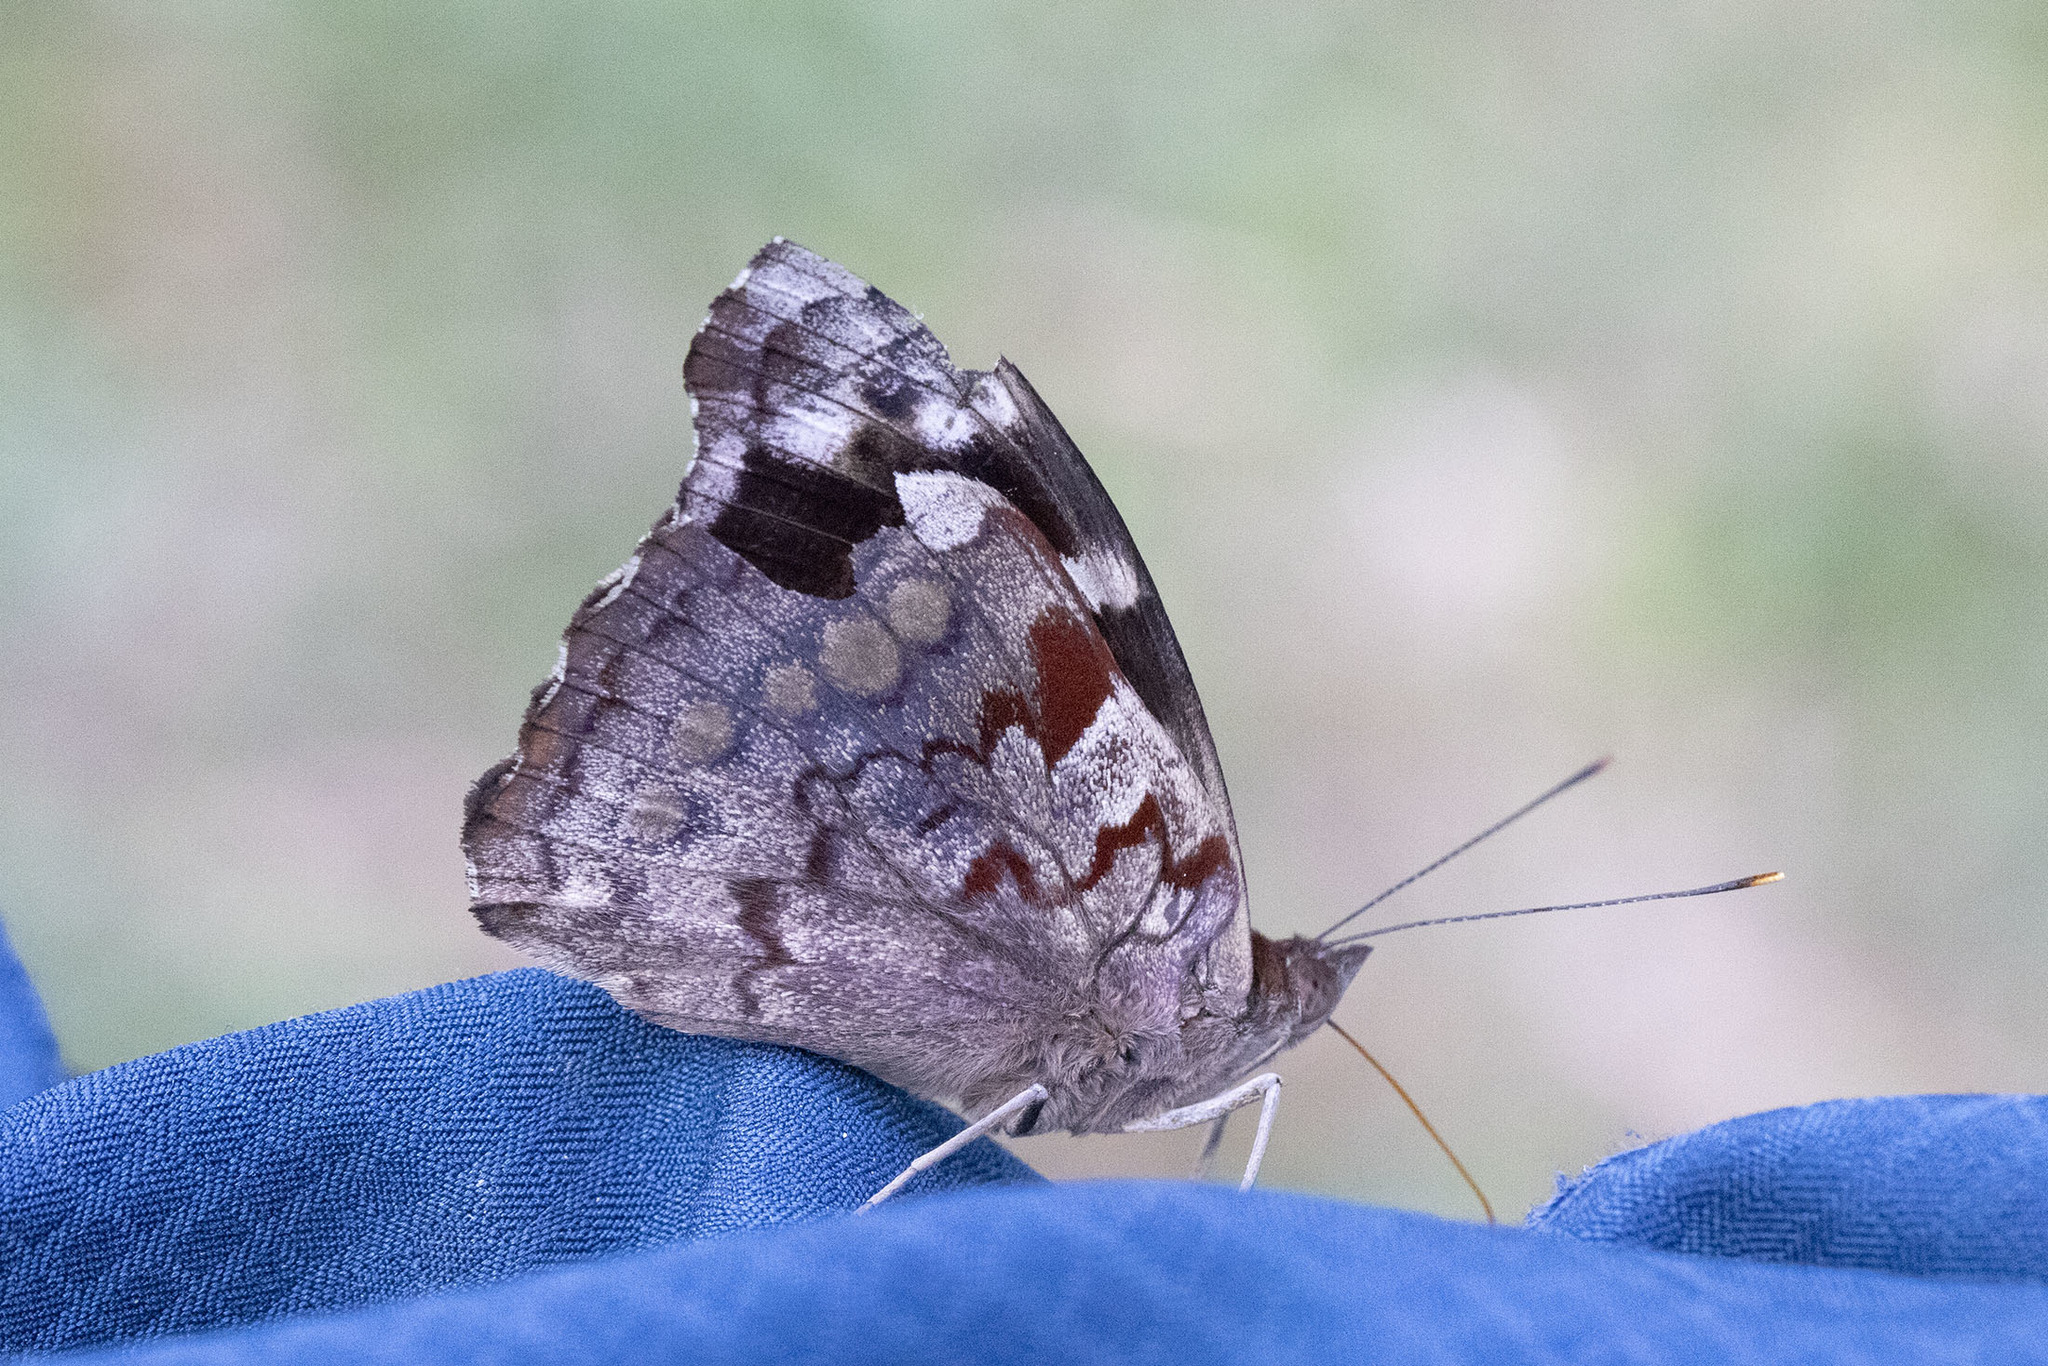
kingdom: Animalia
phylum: Arthropoda
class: Insecta
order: Lepidoptera
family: Nymphalidae
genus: Eunica
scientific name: Eunica amycla
